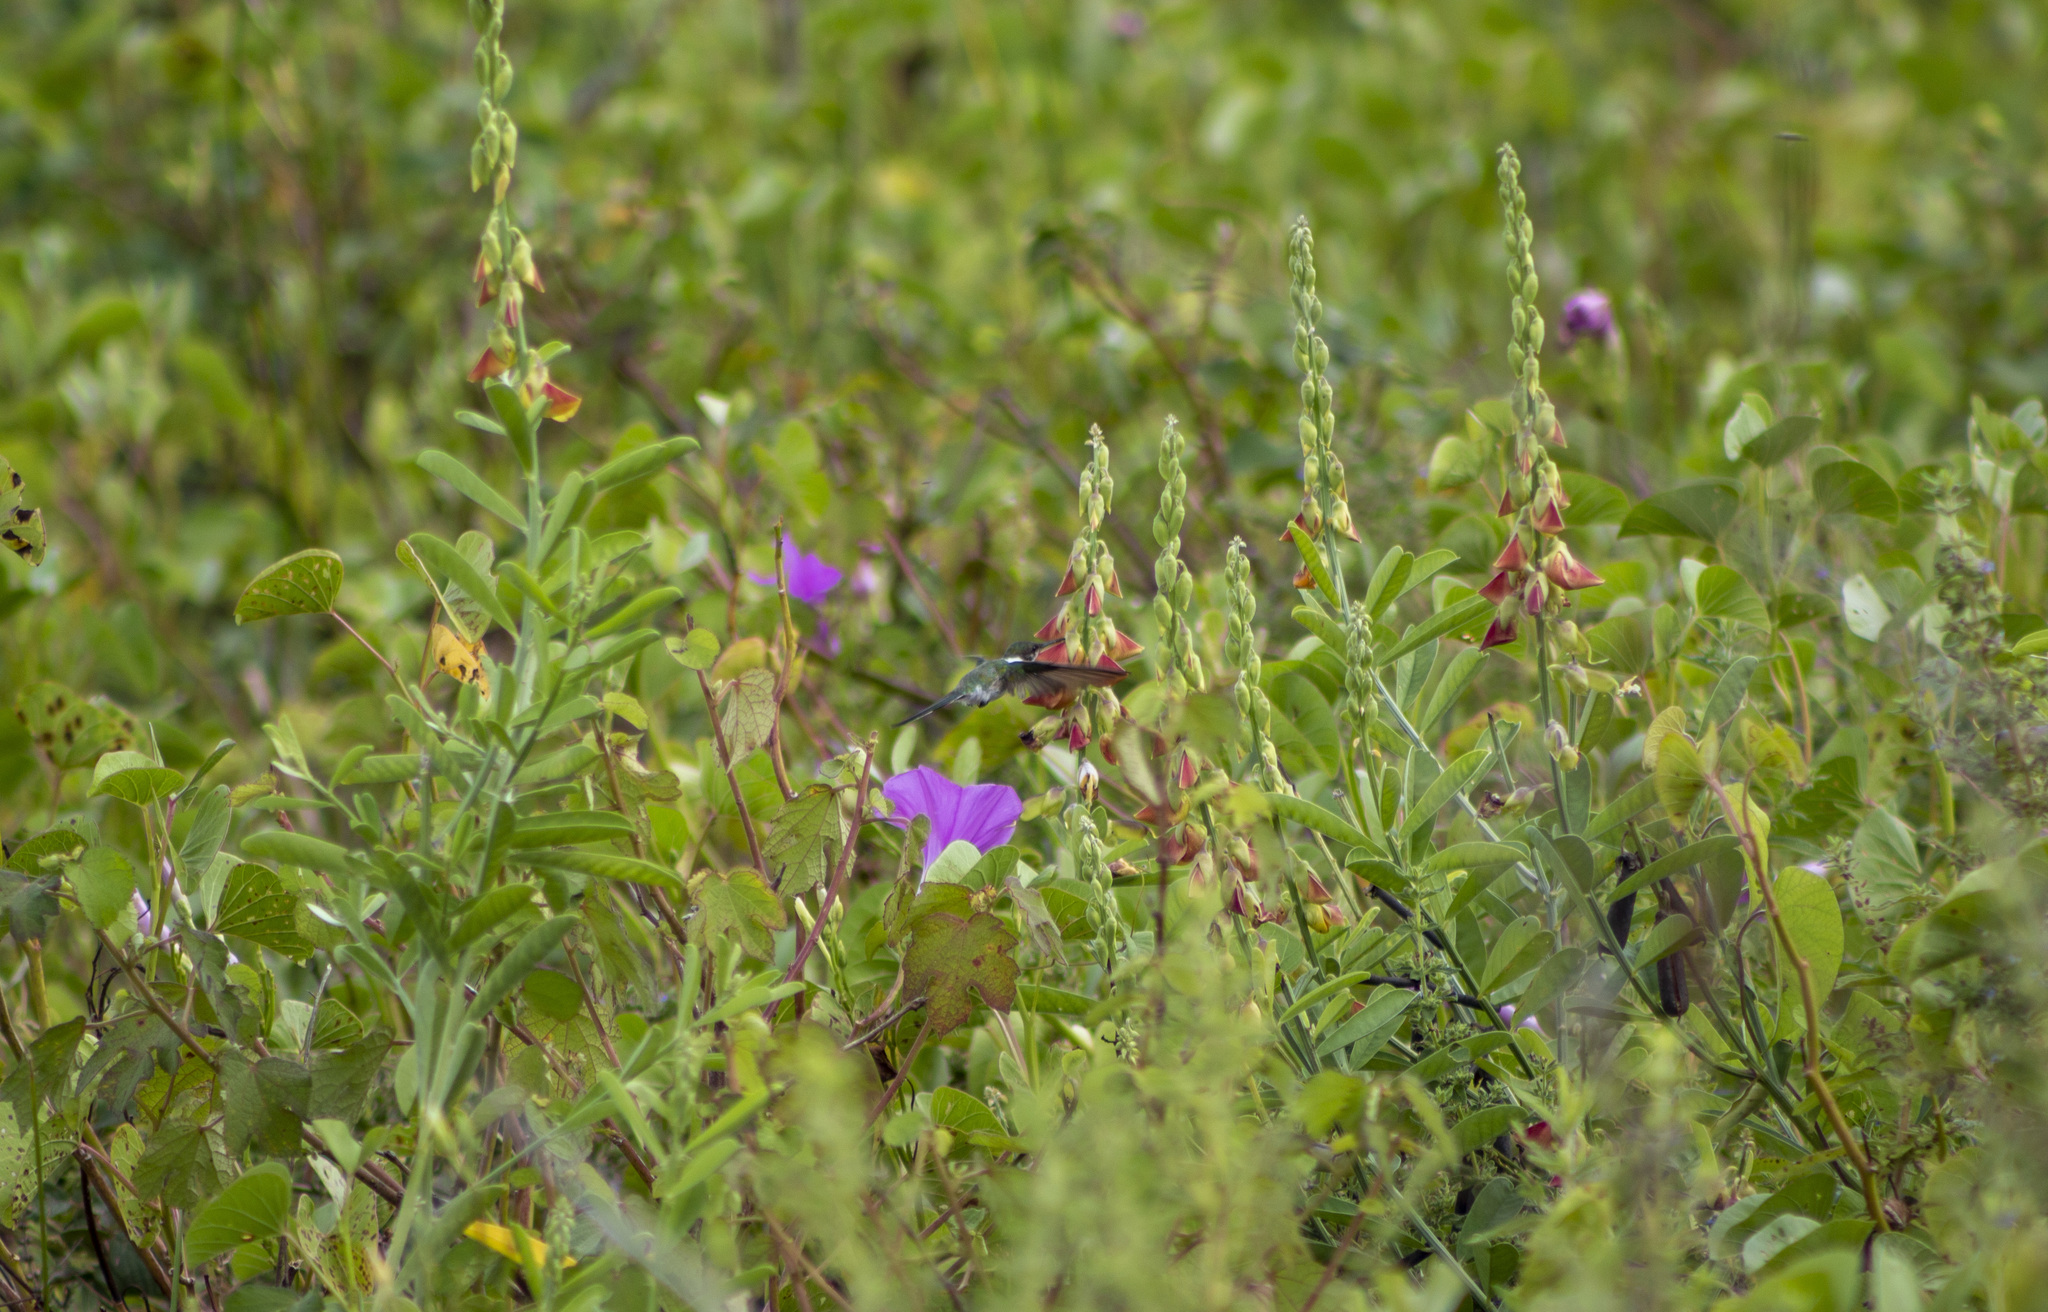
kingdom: Animalia
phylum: Chordata
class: Aves
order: Apodiformes
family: Trochilidae
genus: Heliactin
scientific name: Heliactin bilophus
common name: Horned sungem
